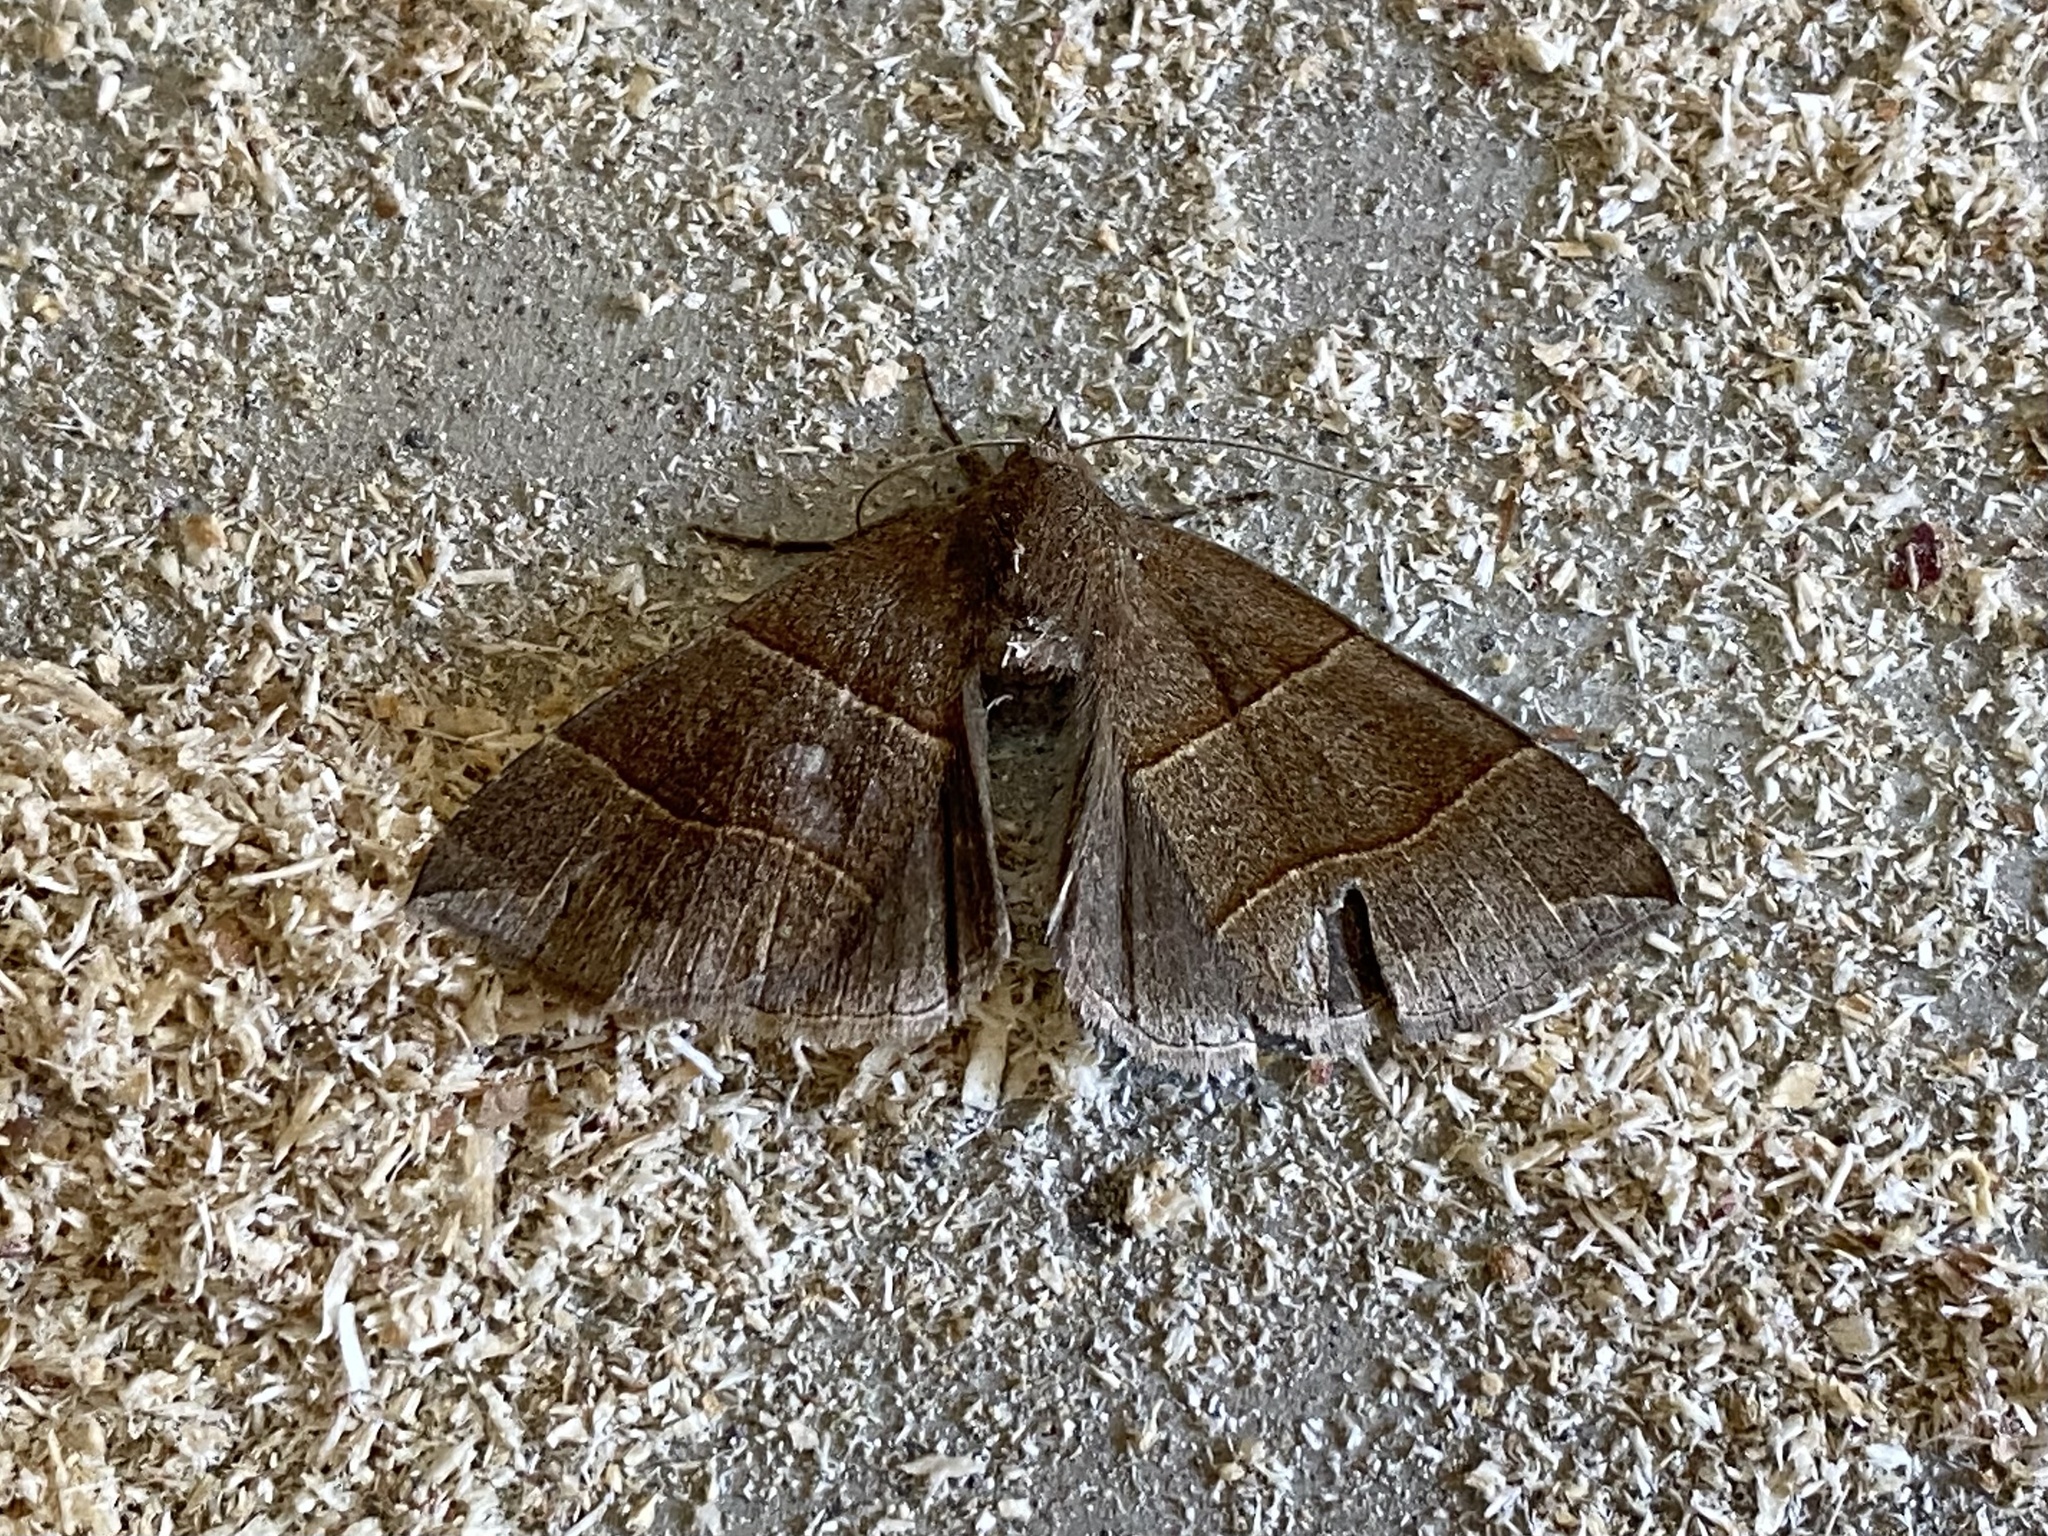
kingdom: Animalia
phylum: Arthropoda
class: Insecta
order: Lepidoptera
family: Erebidae
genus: Parallelia
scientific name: Parallelia bistriaris
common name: Maple looper moth
